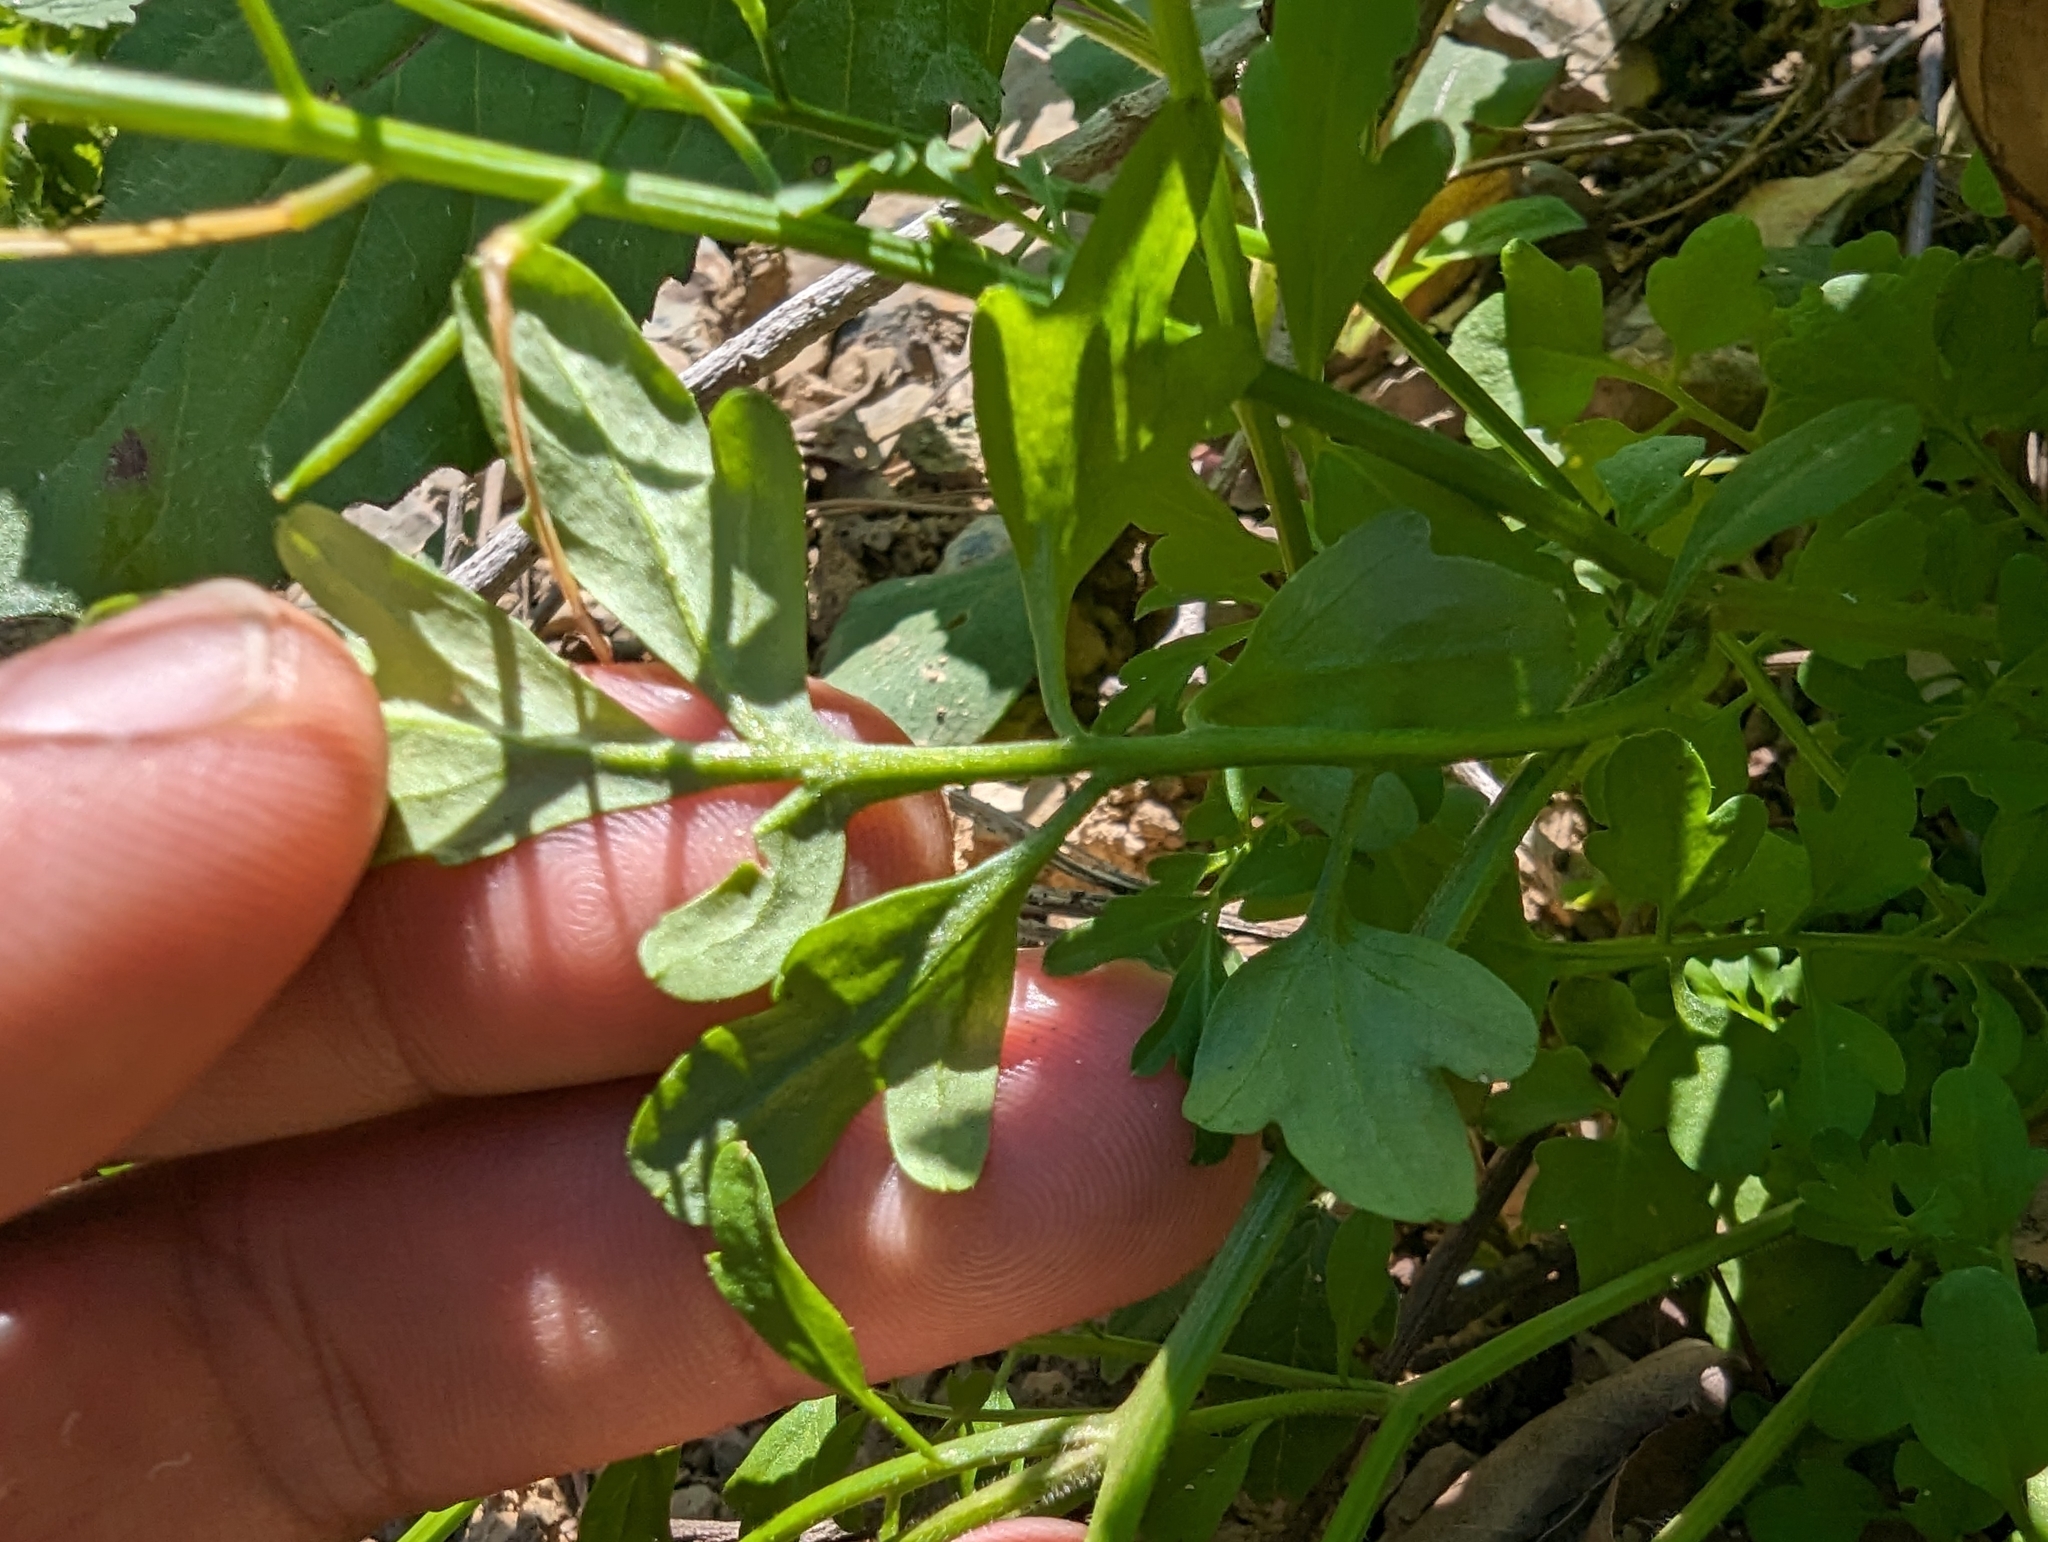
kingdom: Plantae
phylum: Tracheophyta
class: Magnoliopsida
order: Brassicales
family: Brassicaceae
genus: Cardamine
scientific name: Cardamine flexuosa
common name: Woodland bittercress
